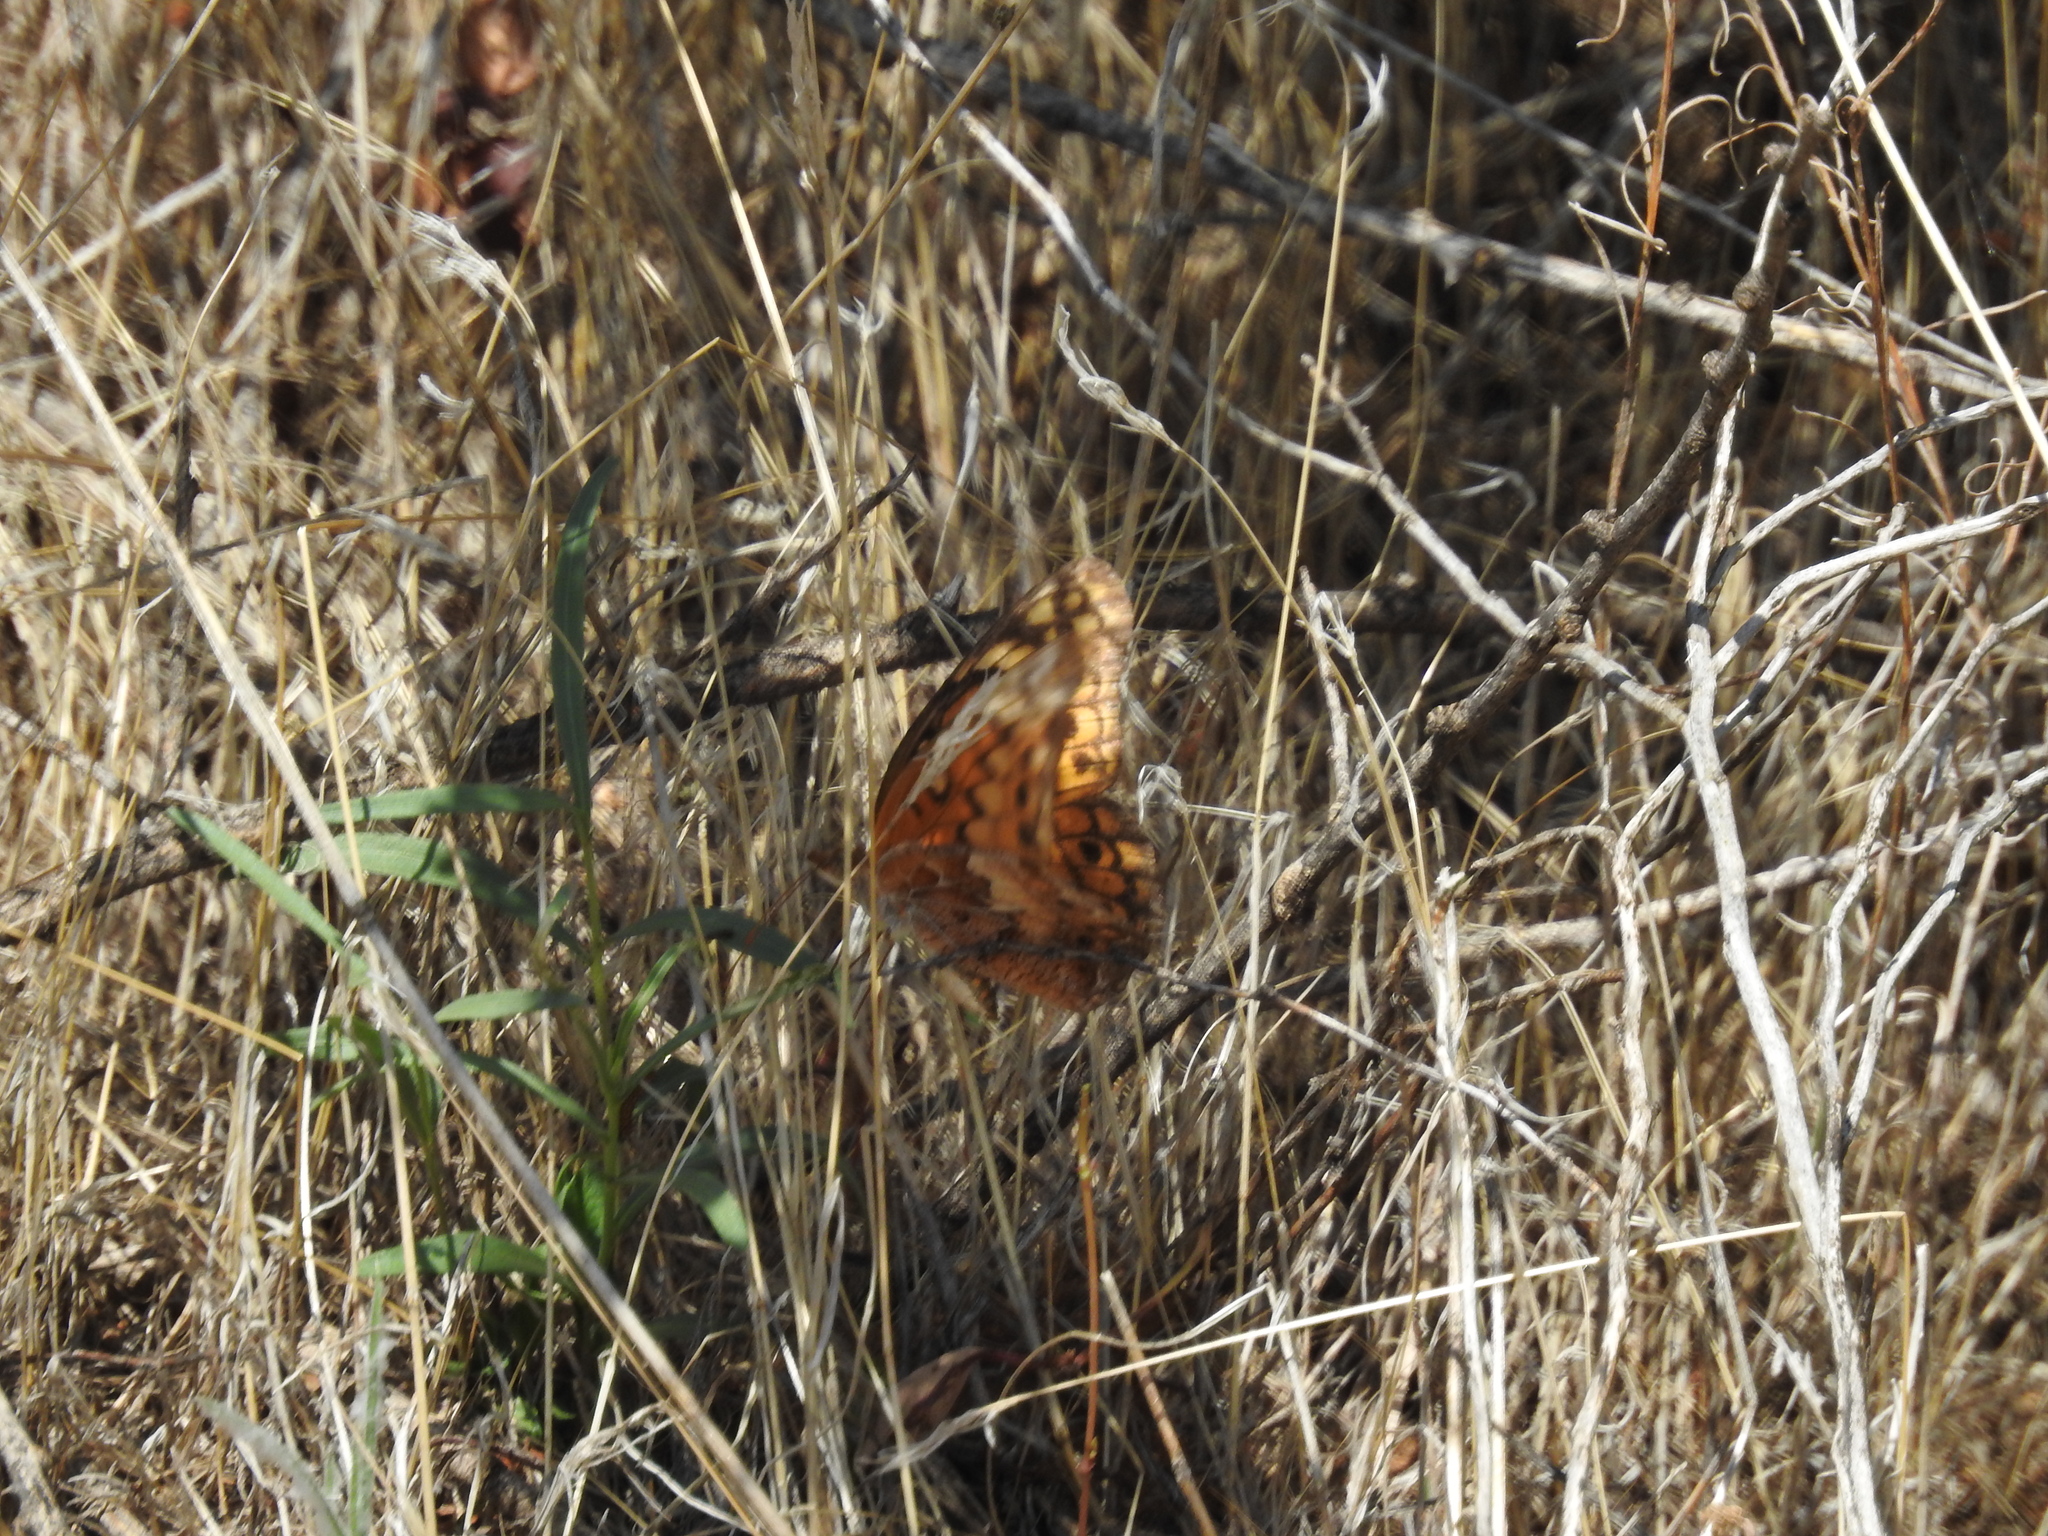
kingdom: Animalia
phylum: Arthropoda
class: Insecta
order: Lepidoptera
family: Nymphalidae
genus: Euptoieta
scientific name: Euptoieta claudia
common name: Variegated fritillary
